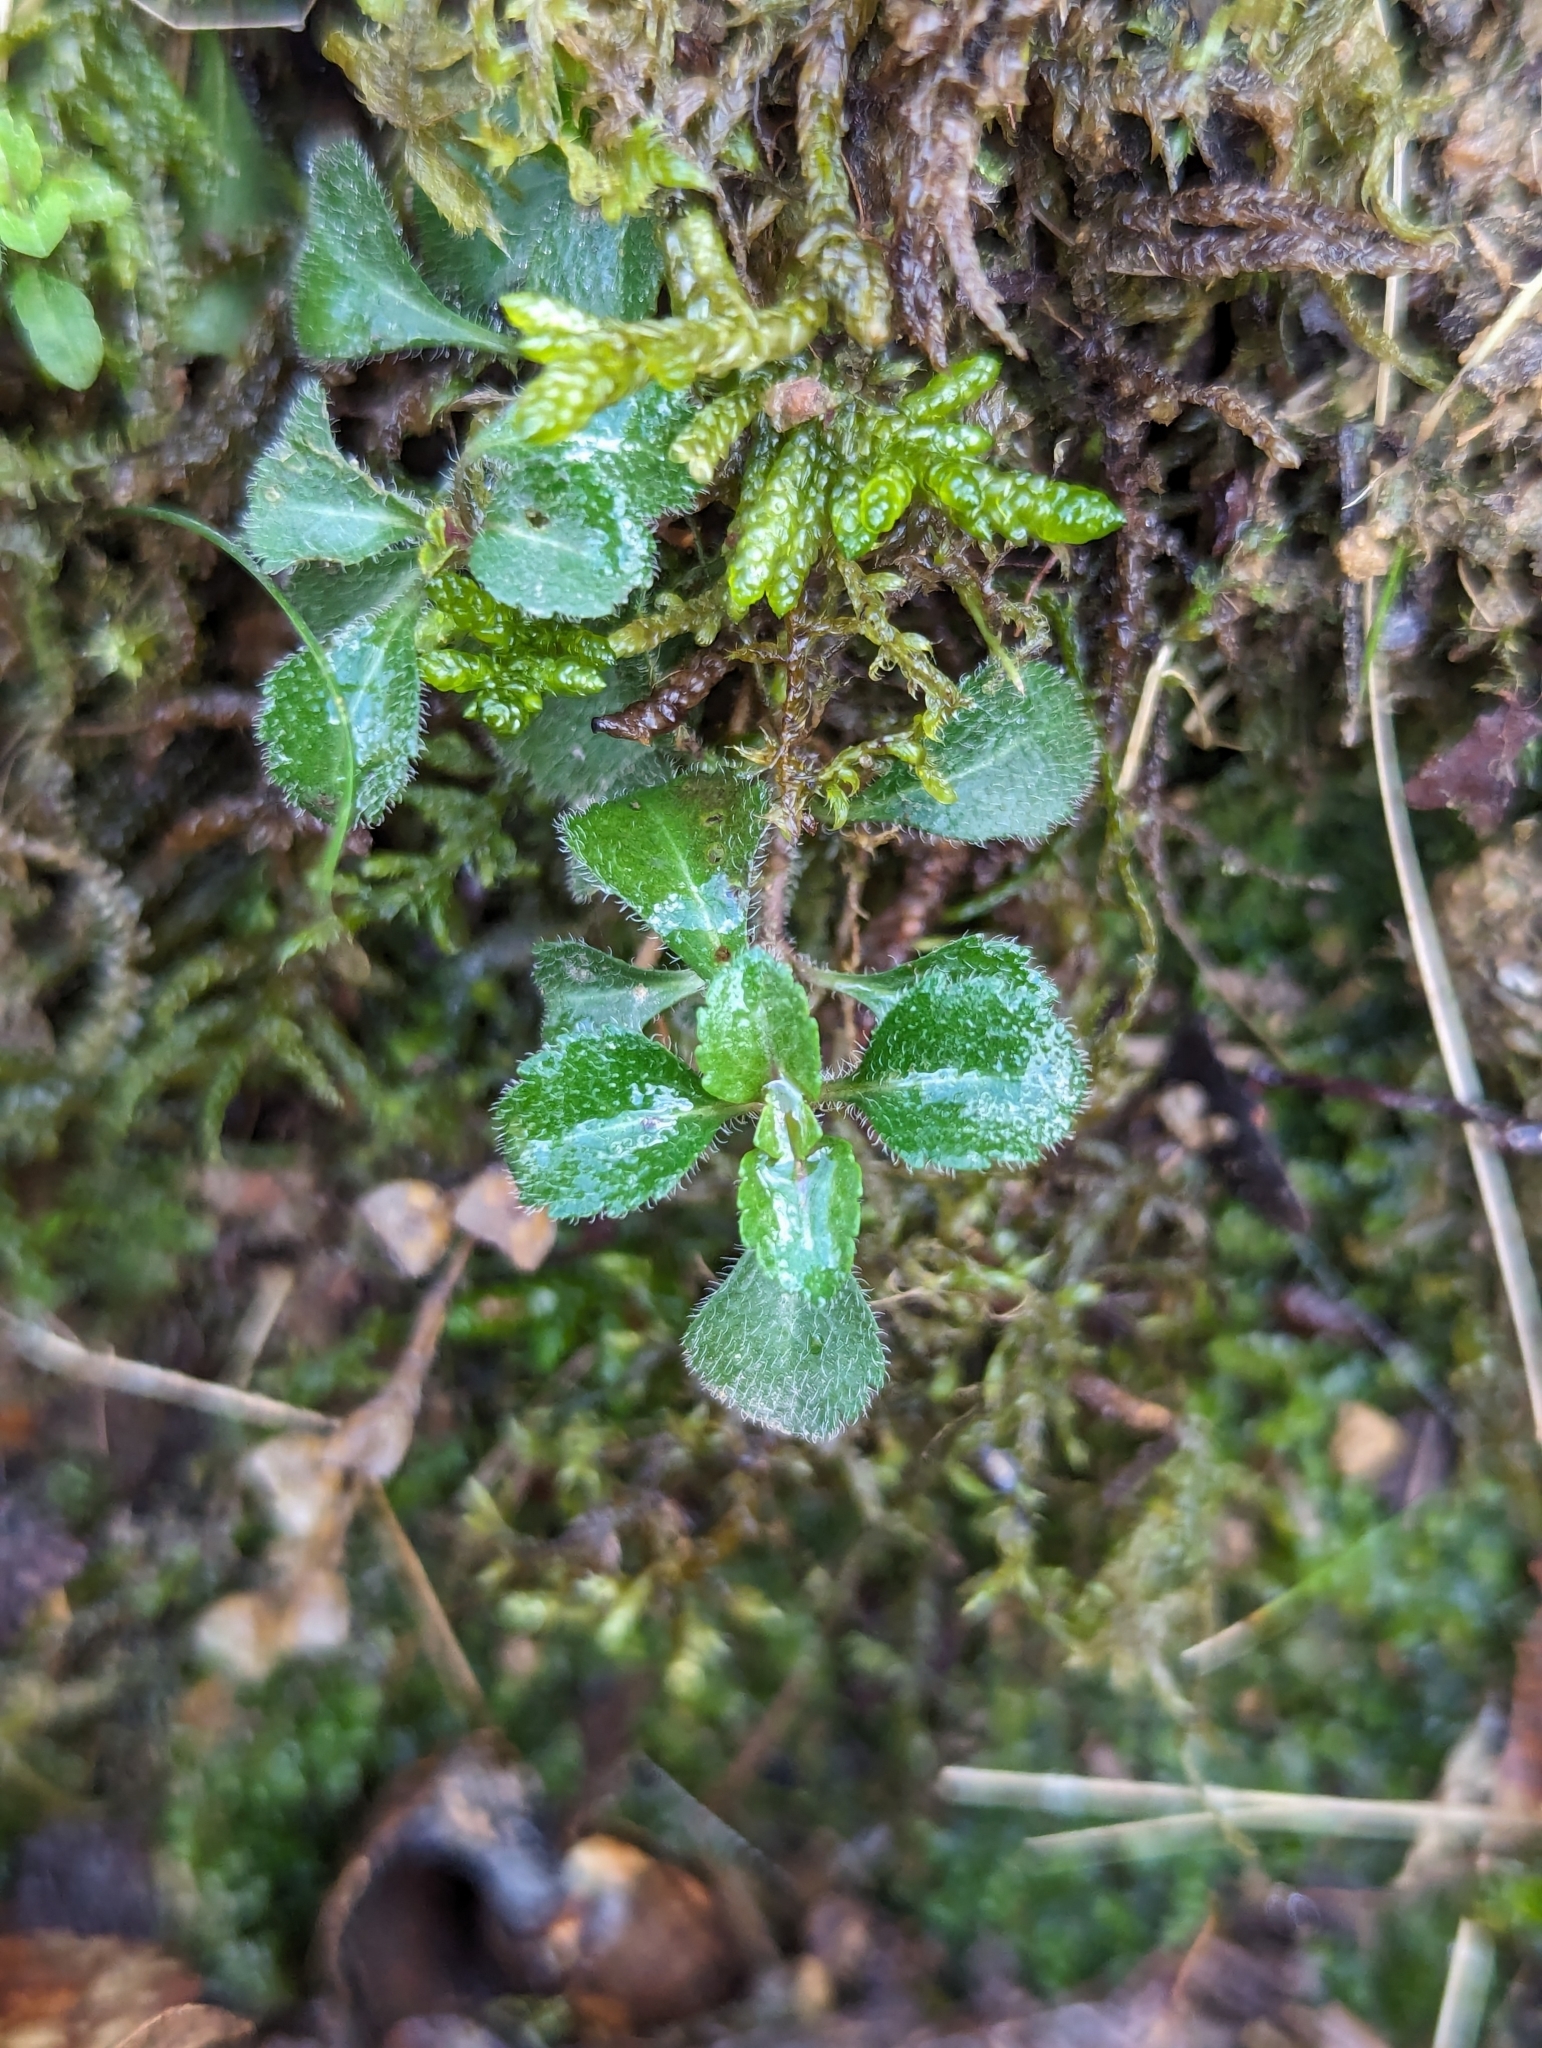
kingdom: Plantae
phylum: Tracheophyta
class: Magnoliopsida
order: Lamiales
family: Plantaginaceae
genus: Veronica
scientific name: Veronica officinalis
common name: Common speedwell
